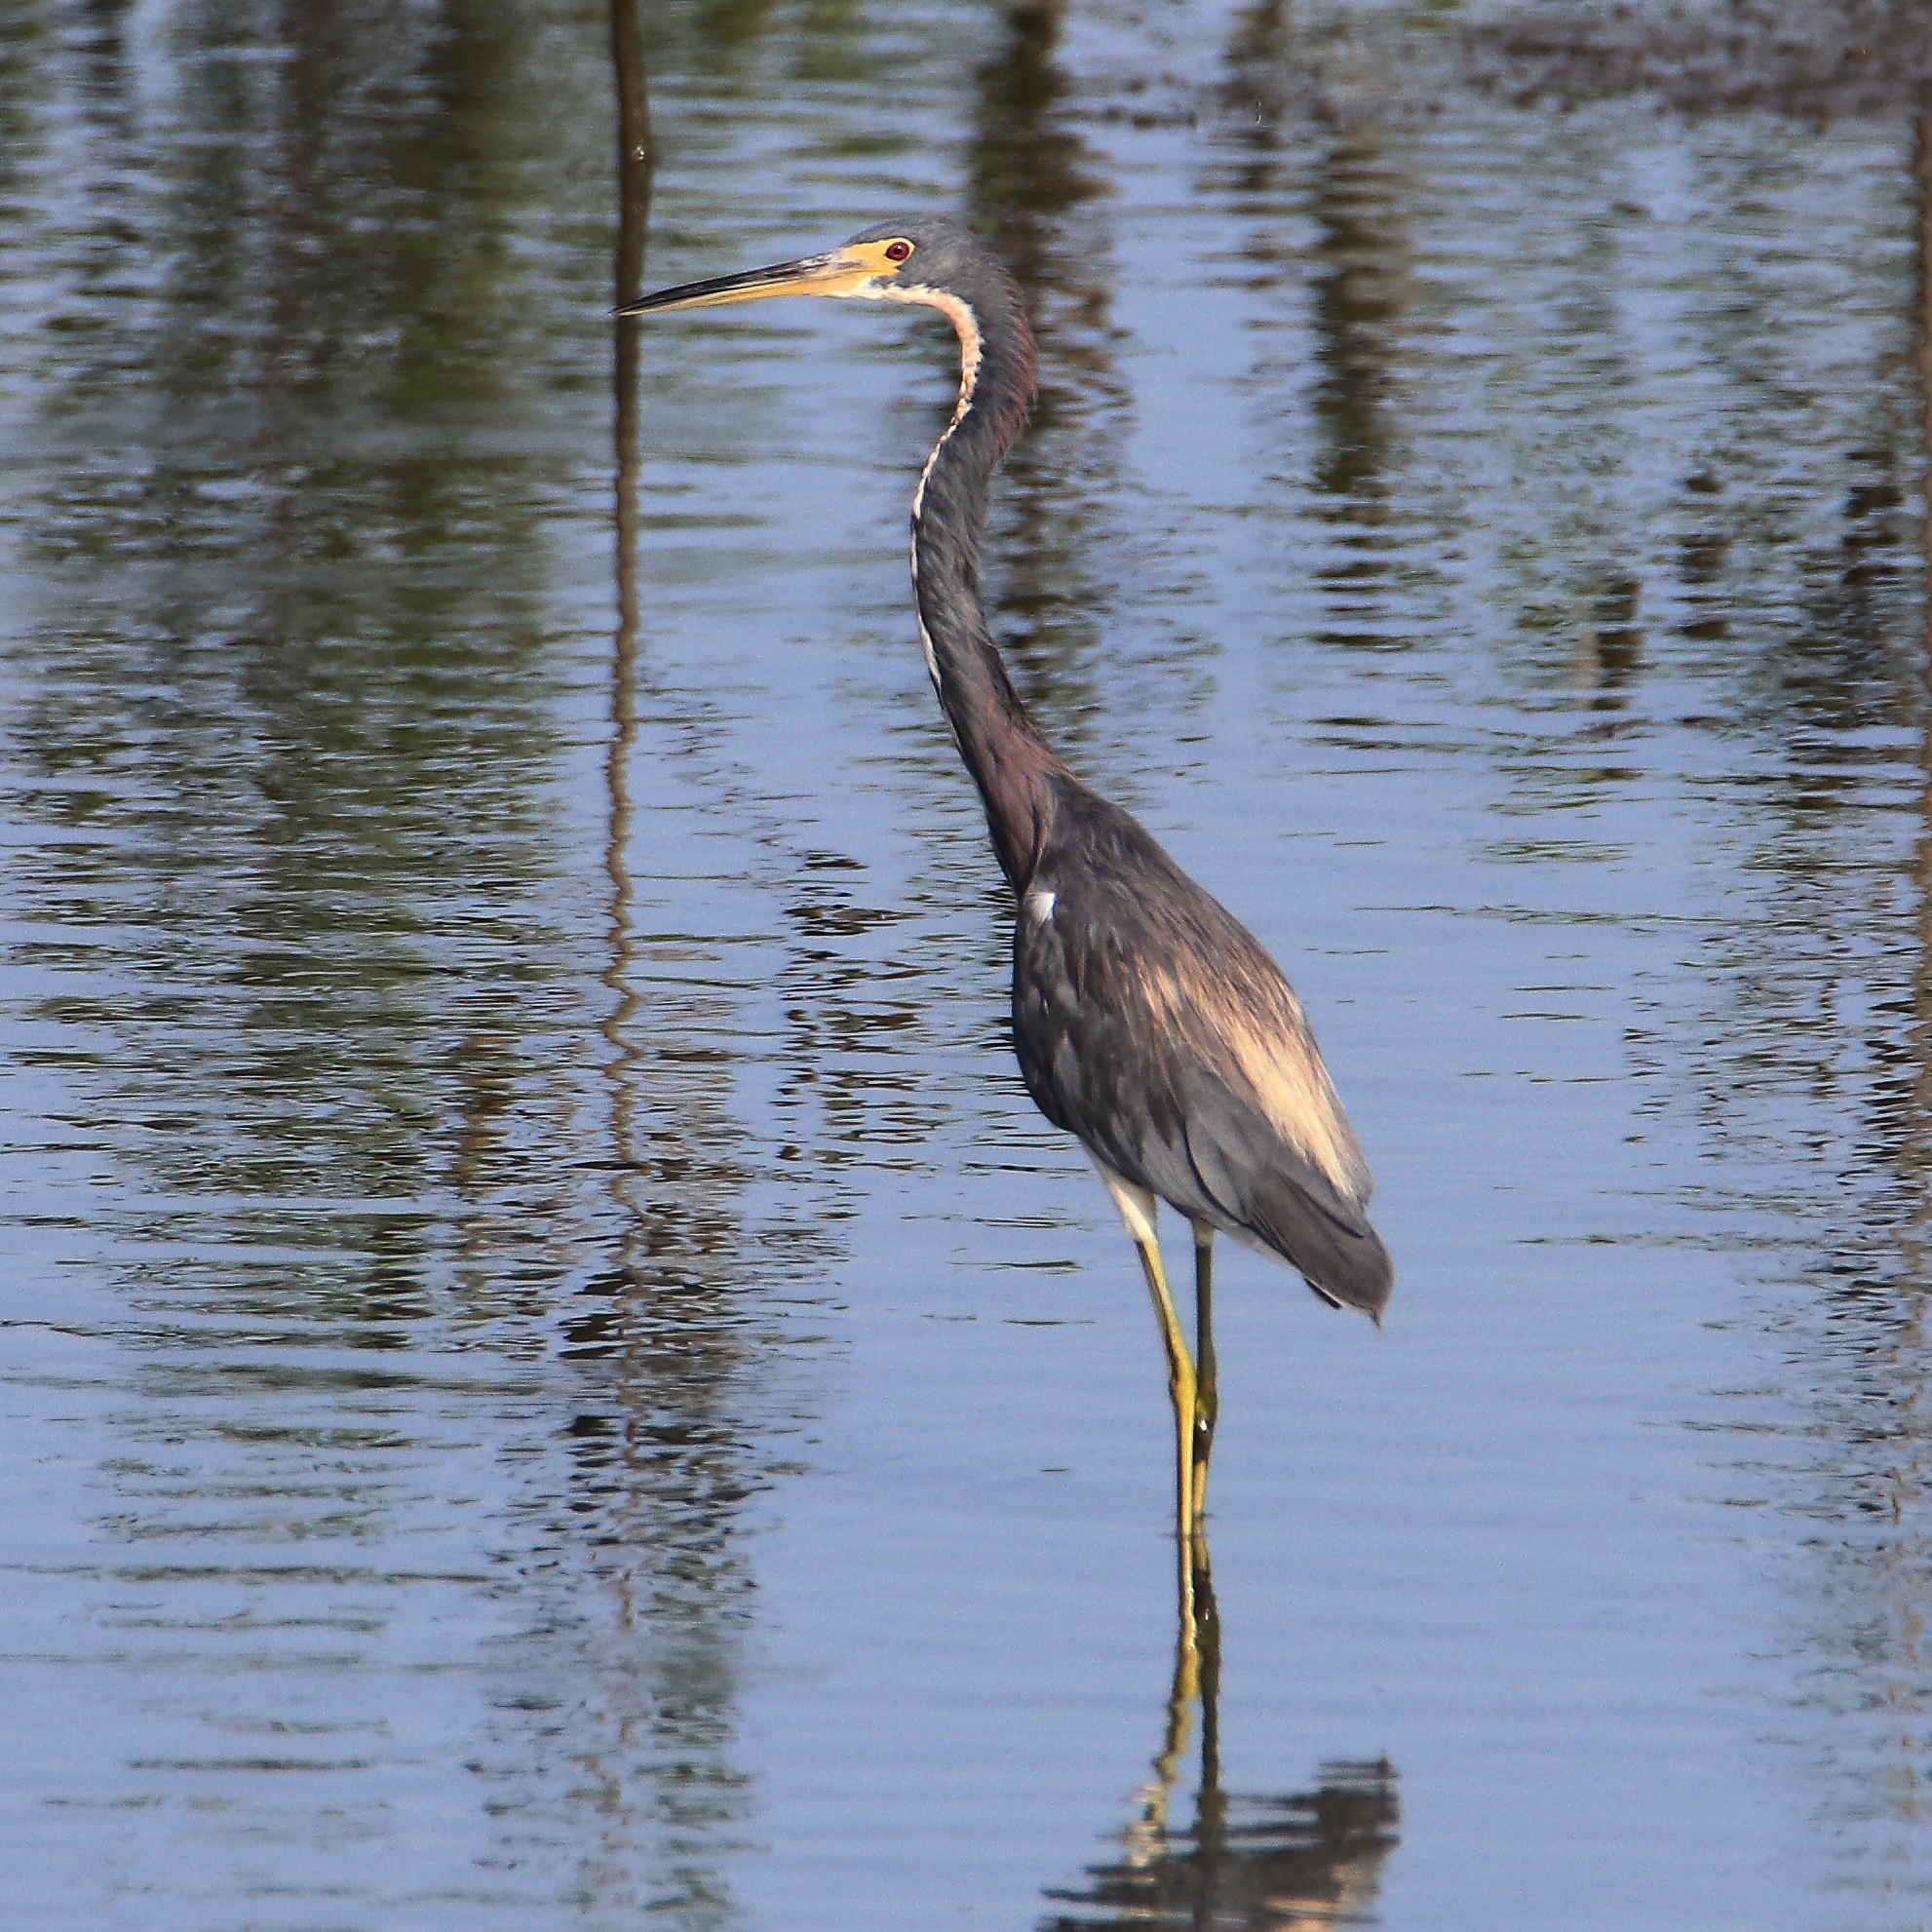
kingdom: Animalia
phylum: Chordata
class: Aves
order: Pelecaniformes
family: Ardeidae
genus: Egretta
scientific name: Egretta tricolor
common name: Tricolored heron
